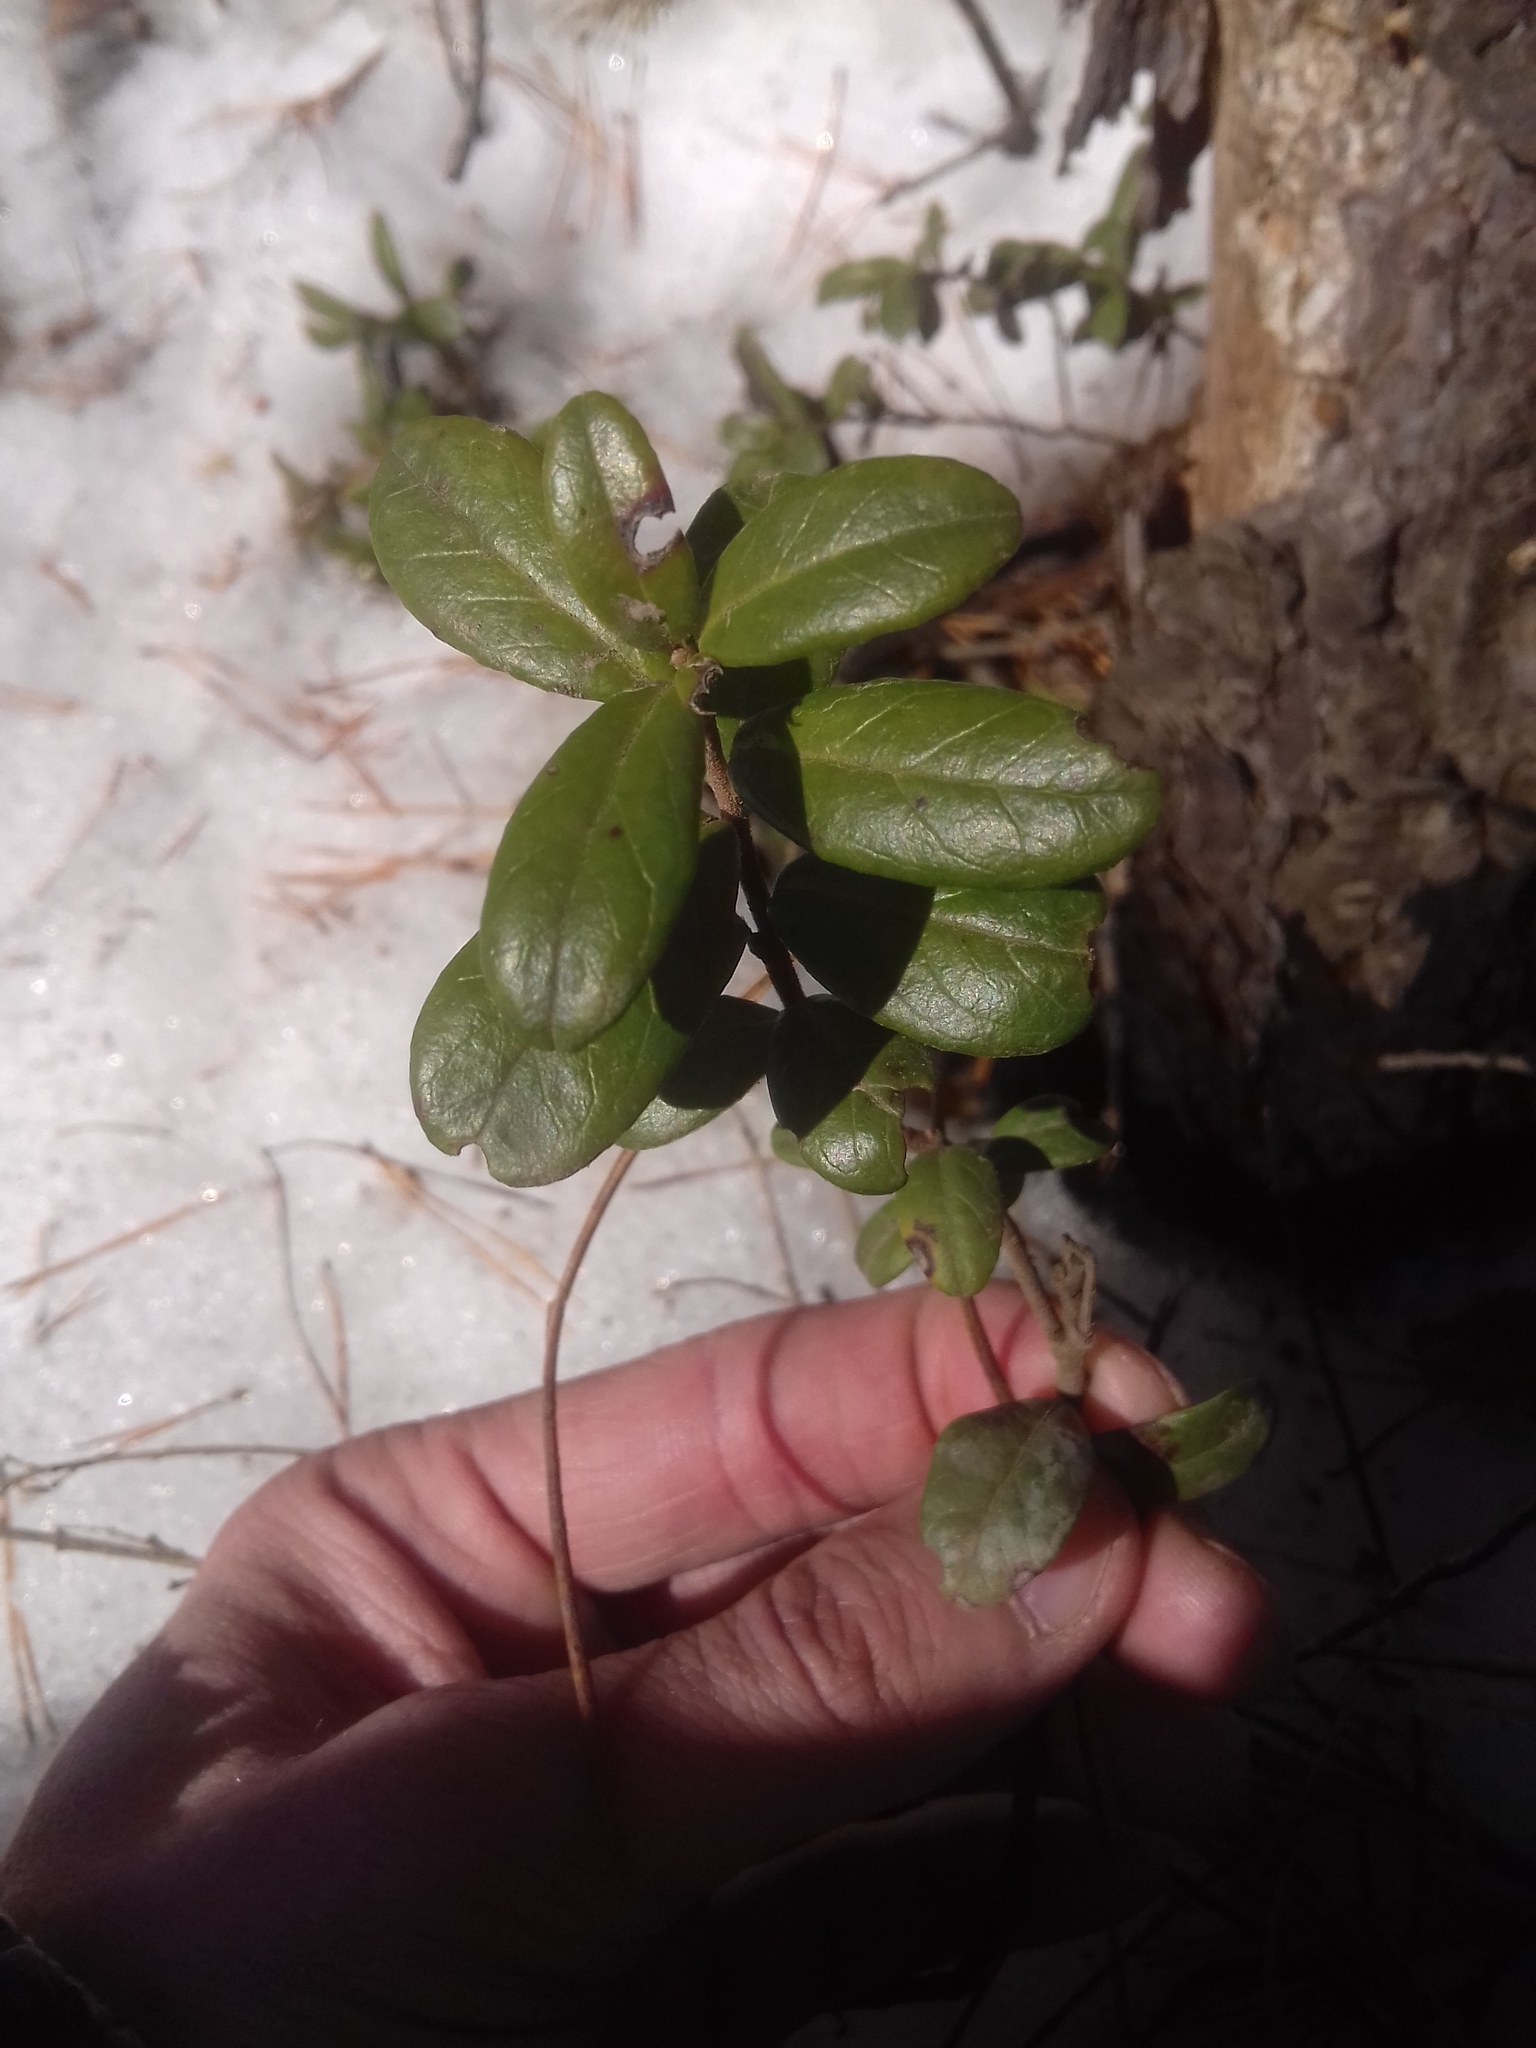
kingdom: Plantae
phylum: Tracheophyta
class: Magnoliopsida
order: Ericales
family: Ericaceae
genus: Vaccinium
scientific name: Vaccinium vitis-idaea
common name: Cowberry
